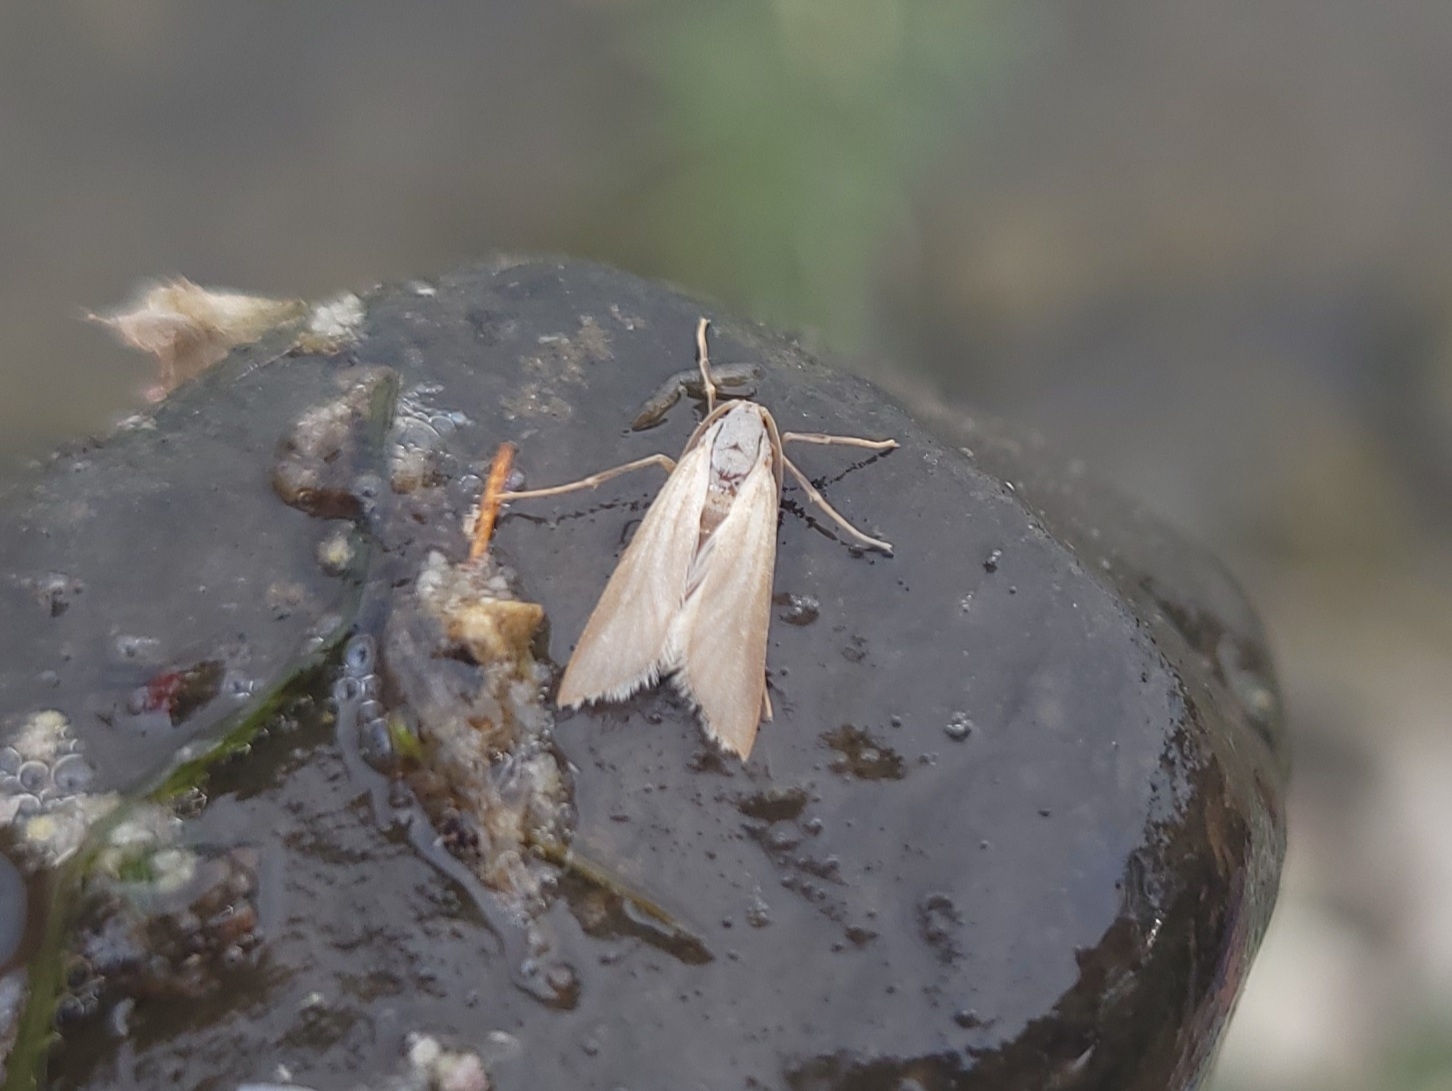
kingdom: Animalia
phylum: Arthropoda
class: Insecta
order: Lepidoptera
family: Crambidae
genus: Acentria
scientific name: Acentria ephemerella
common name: European water moth
